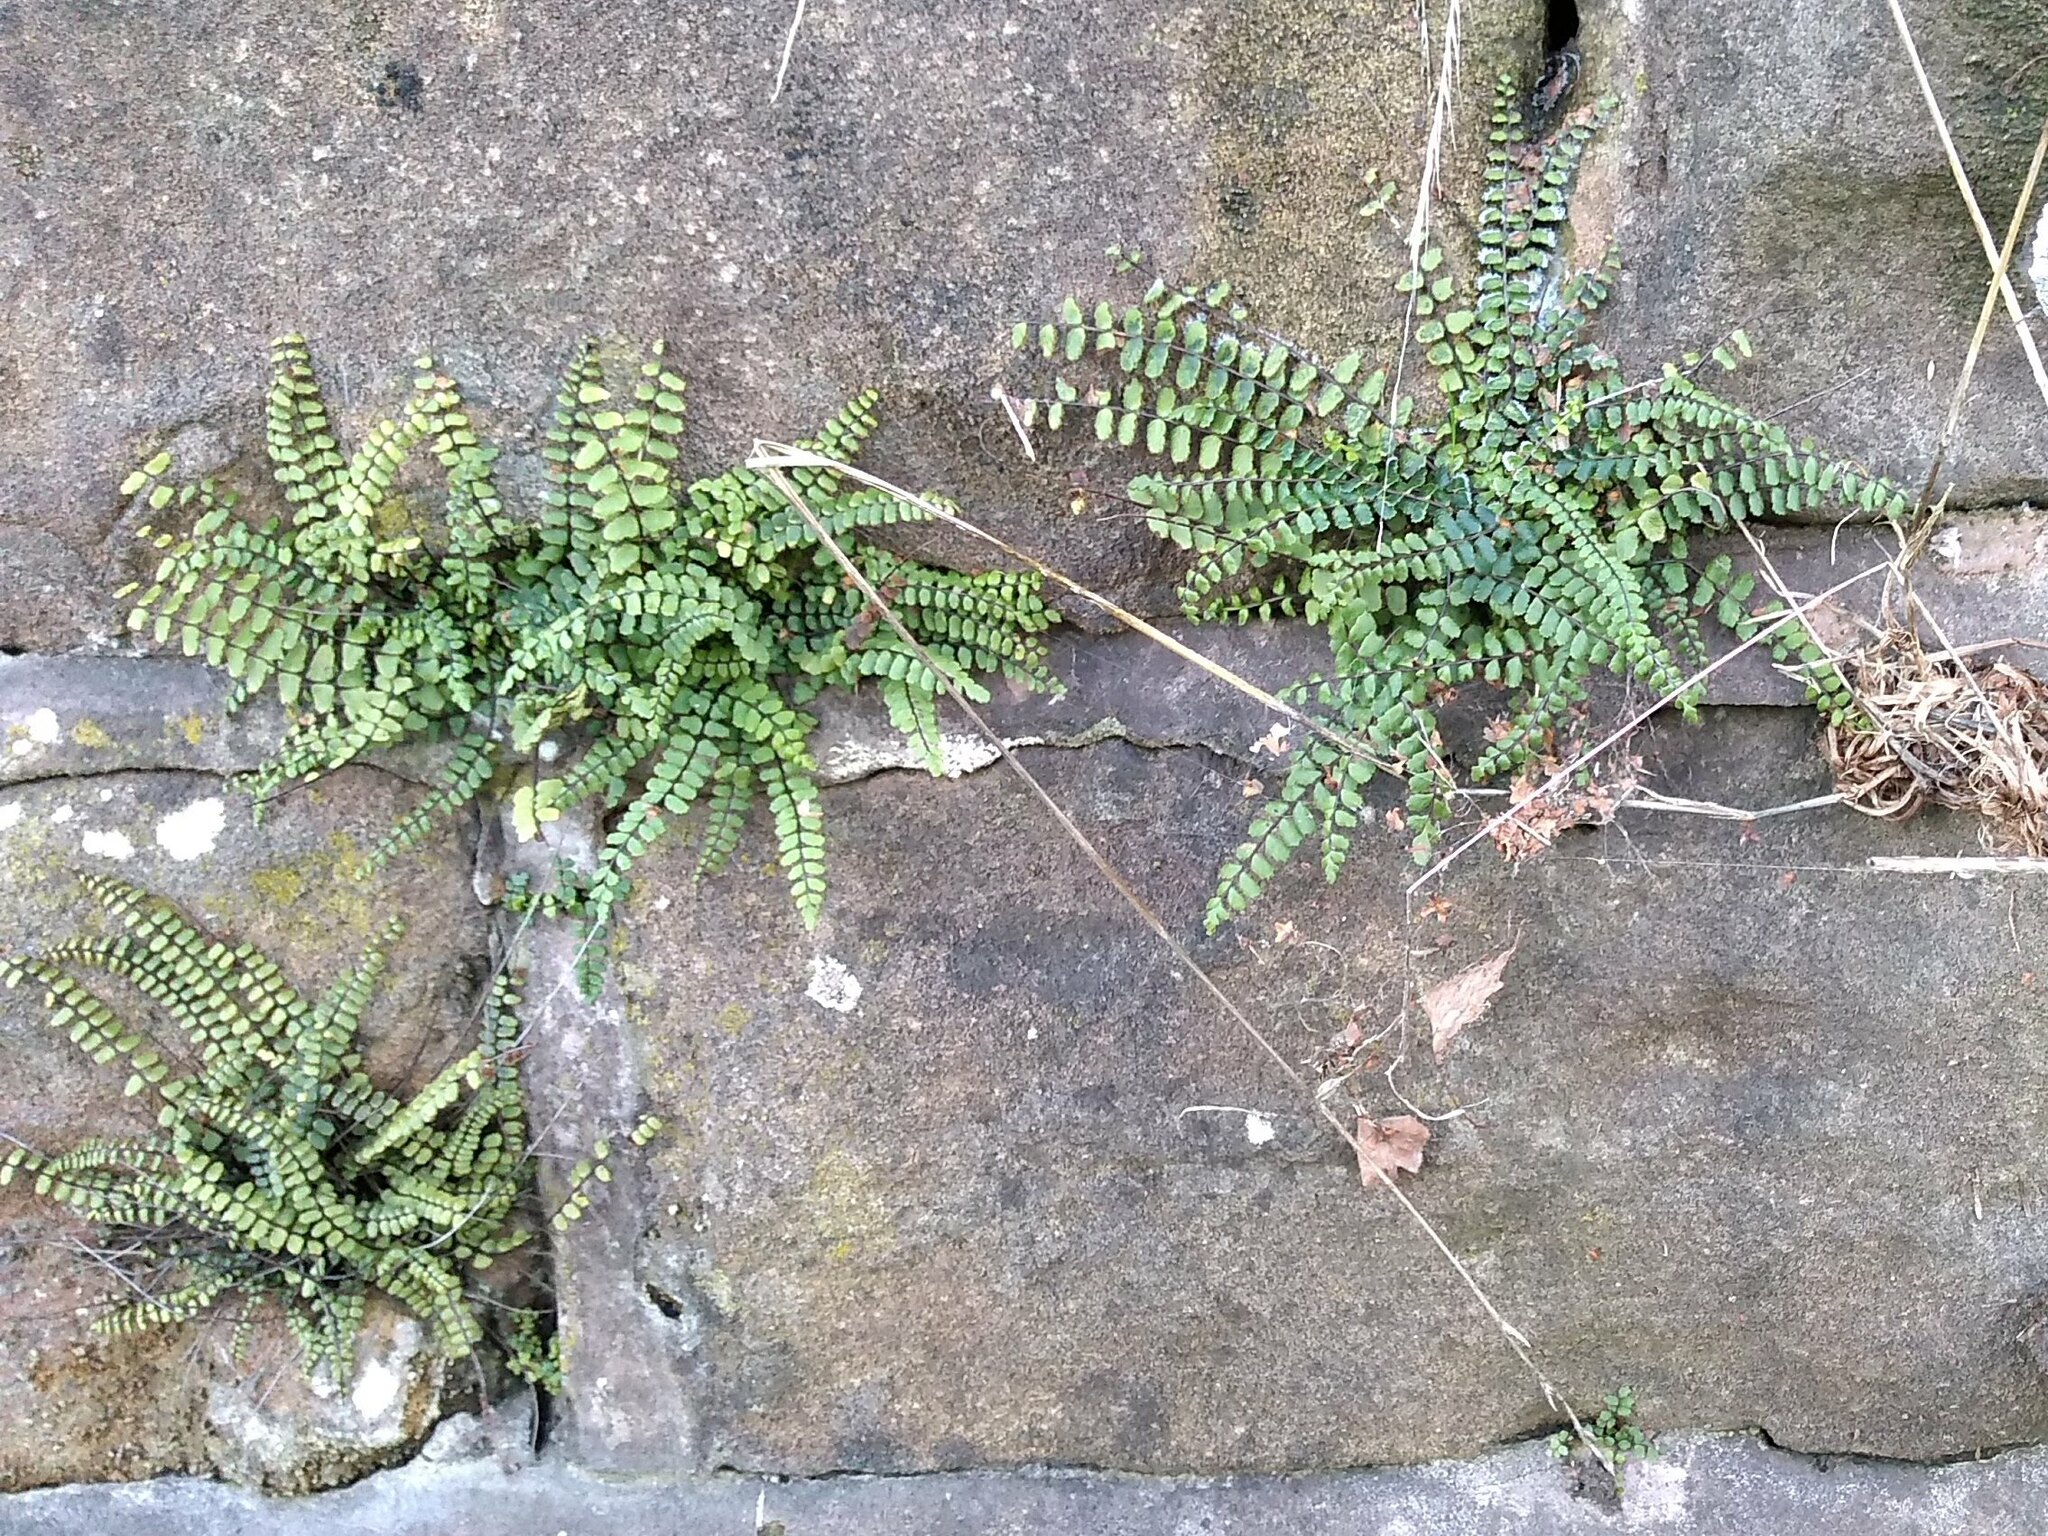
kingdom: Plantae
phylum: Tracheophyta
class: Polypodiopsida
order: Polypodiales
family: Aspleniaceae
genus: Asplenium
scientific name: Asplenium trichomanes
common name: Maidenhair spleenwort
